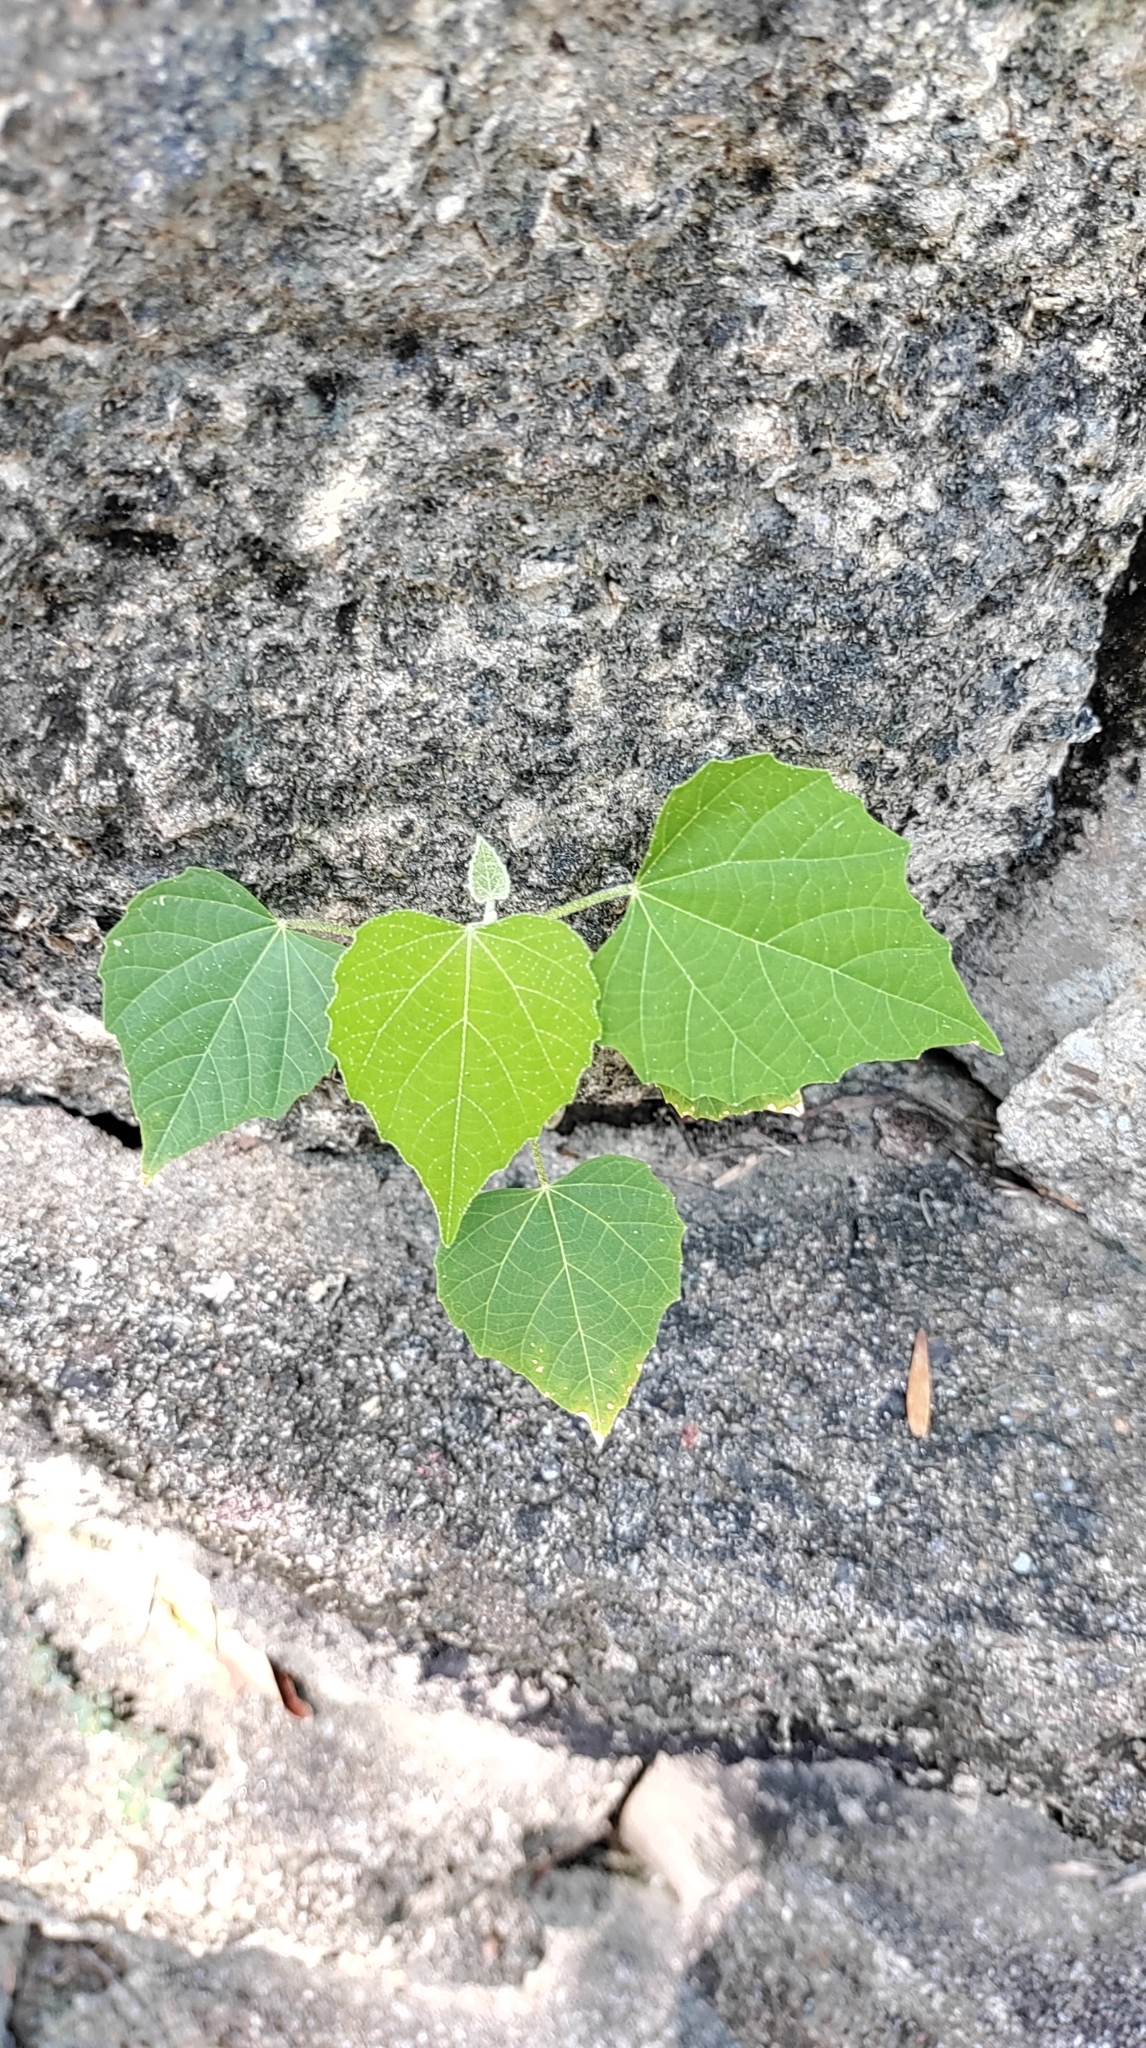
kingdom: Plantae
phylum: Tracheophyta
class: Magnoliopsida
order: Malpighiales
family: Euphorbiaceae
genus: Melanolepis
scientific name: Melanolepis multiglandulosa
